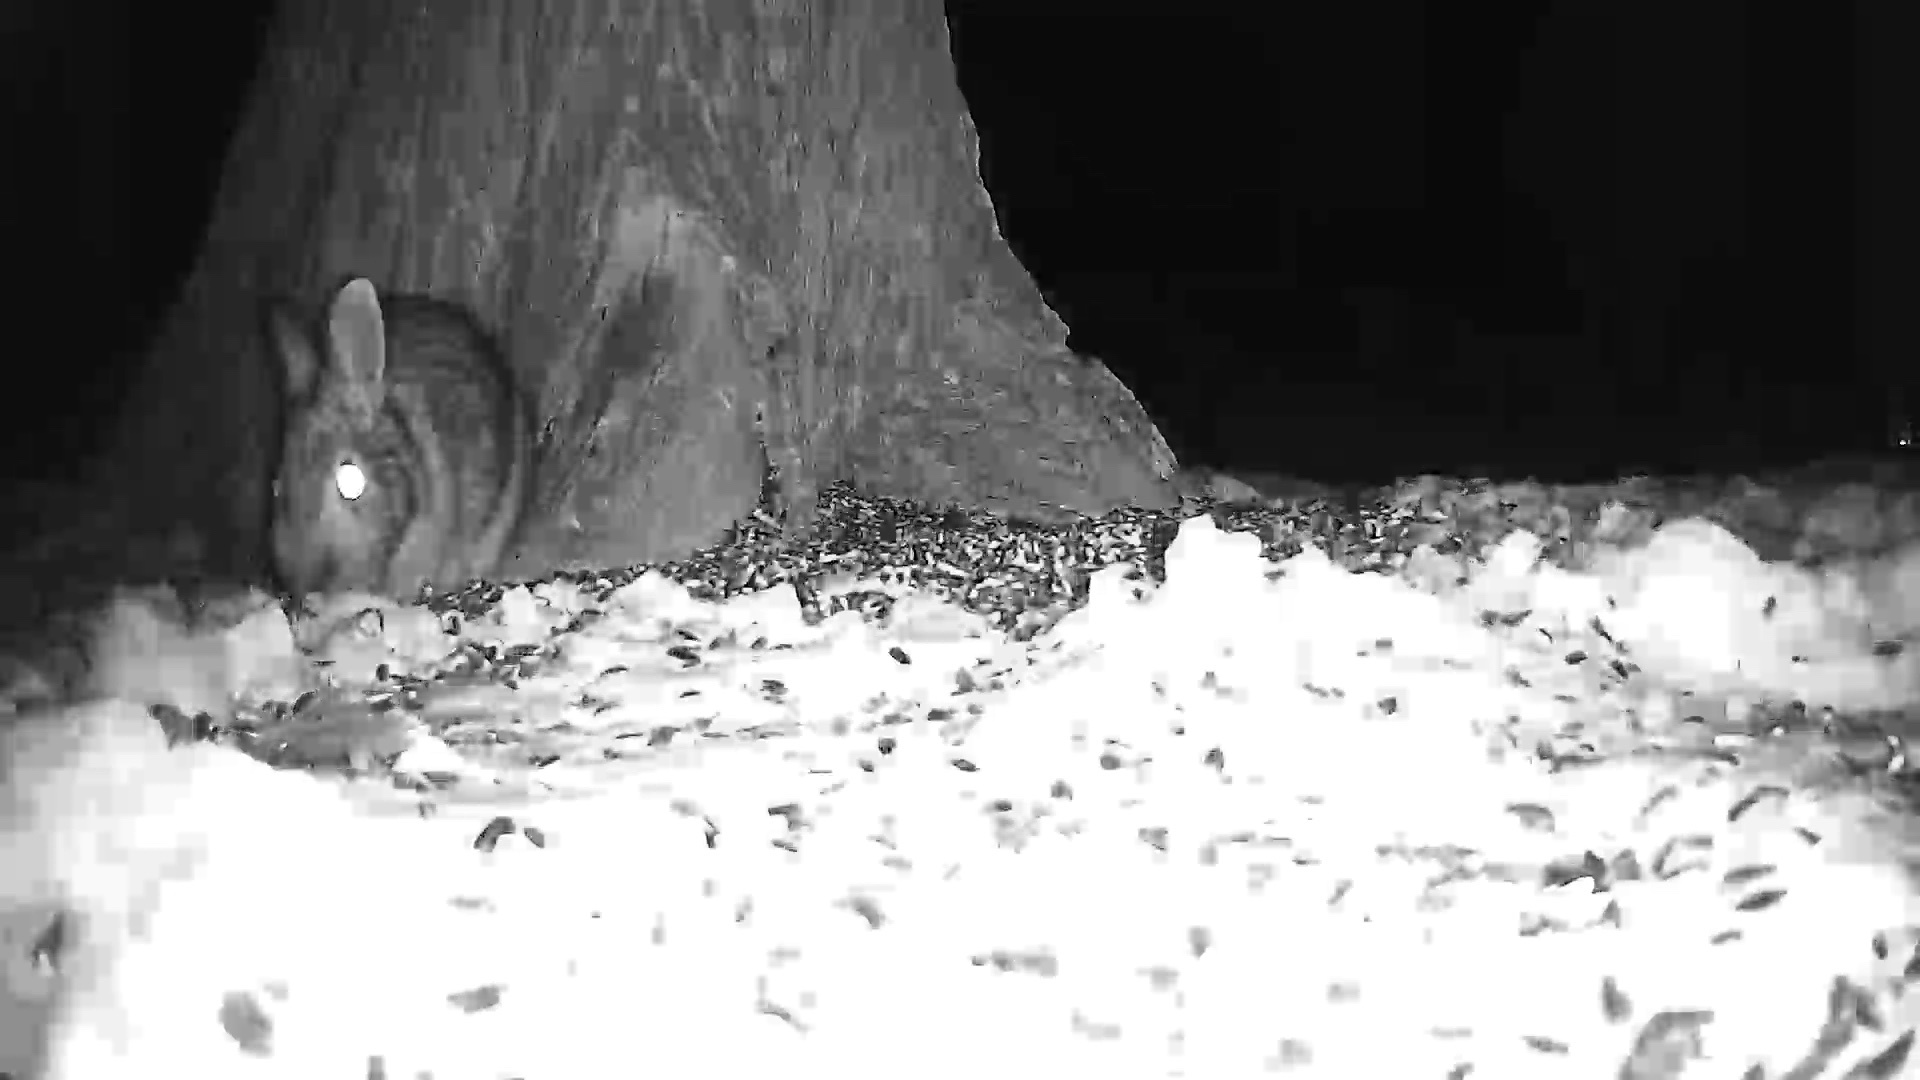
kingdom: Animalia
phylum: Chordata
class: Mammalia
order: Lagomorpha
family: Leporidae
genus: Sylvilagus
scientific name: Sylvilagus floridanus
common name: Eastern cottontail
